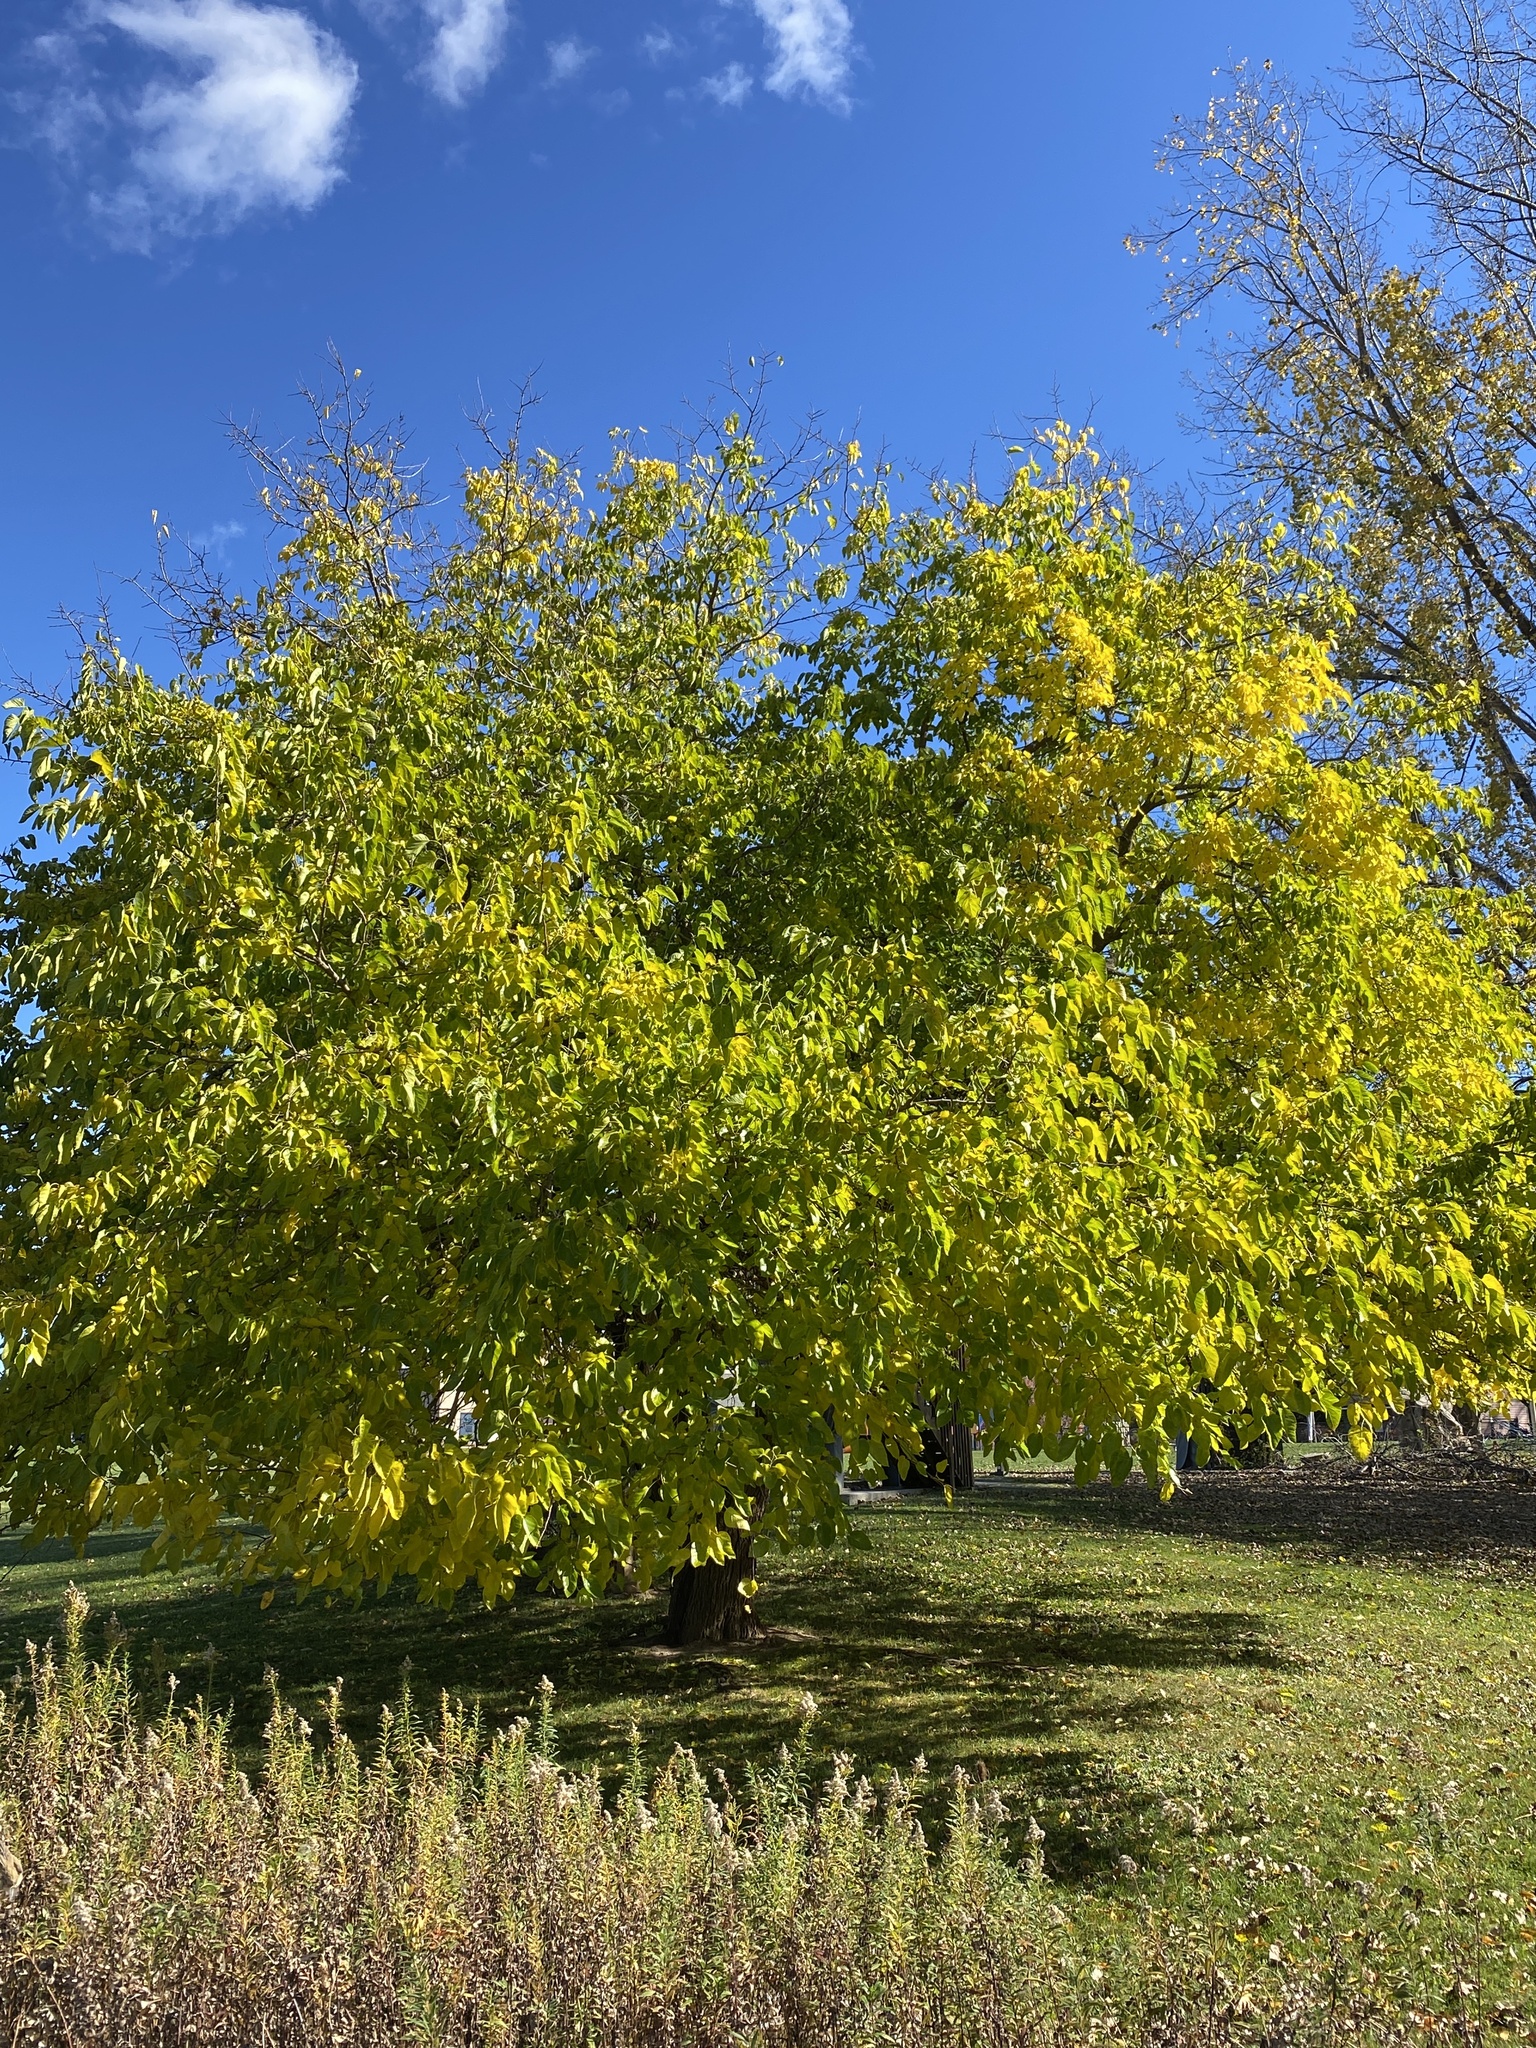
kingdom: Plantae
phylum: Tracheophyta
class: Magnoliopsida
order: Rosales
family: Moraceae
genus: Morus
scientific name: Morus alba
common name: White mulberry
